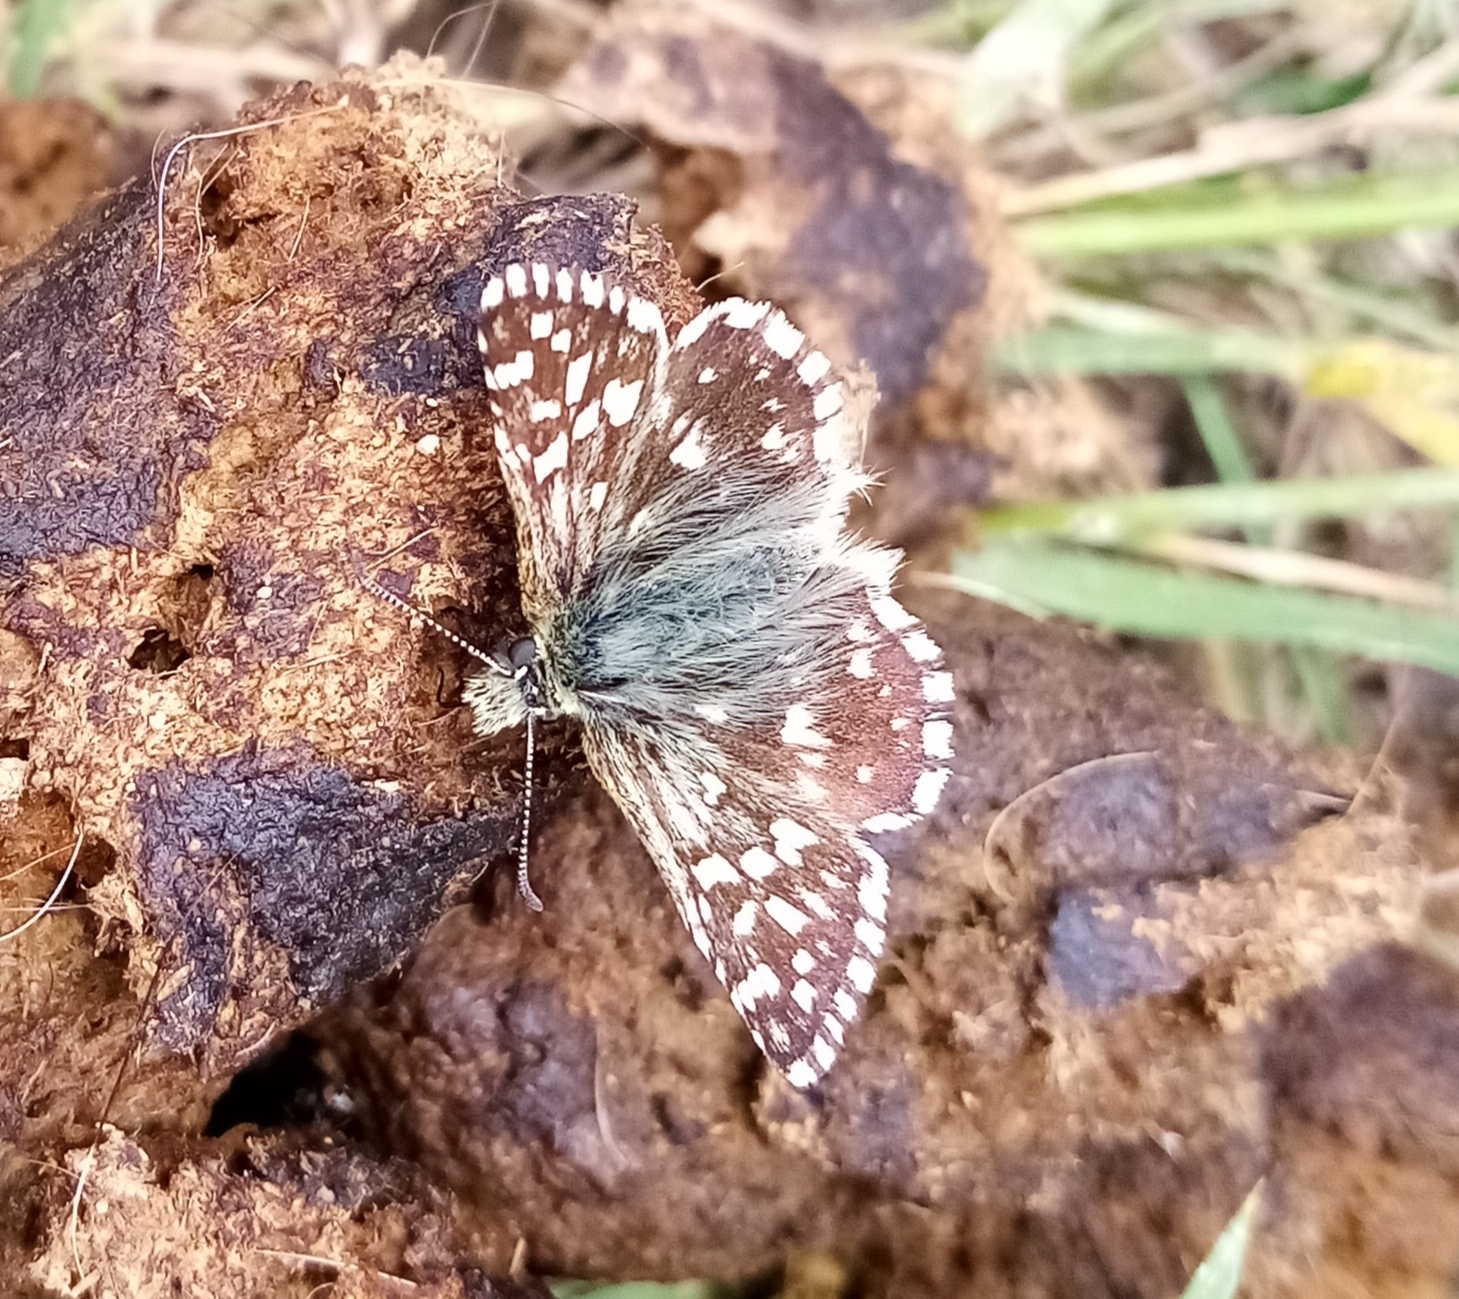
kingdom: Animalia
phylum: Arthropoda
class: Insecta
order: Lepidoptera
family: Hesperiidae
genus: Pyrgus
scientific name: Pyrgus melotis
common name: Aegean skipper
